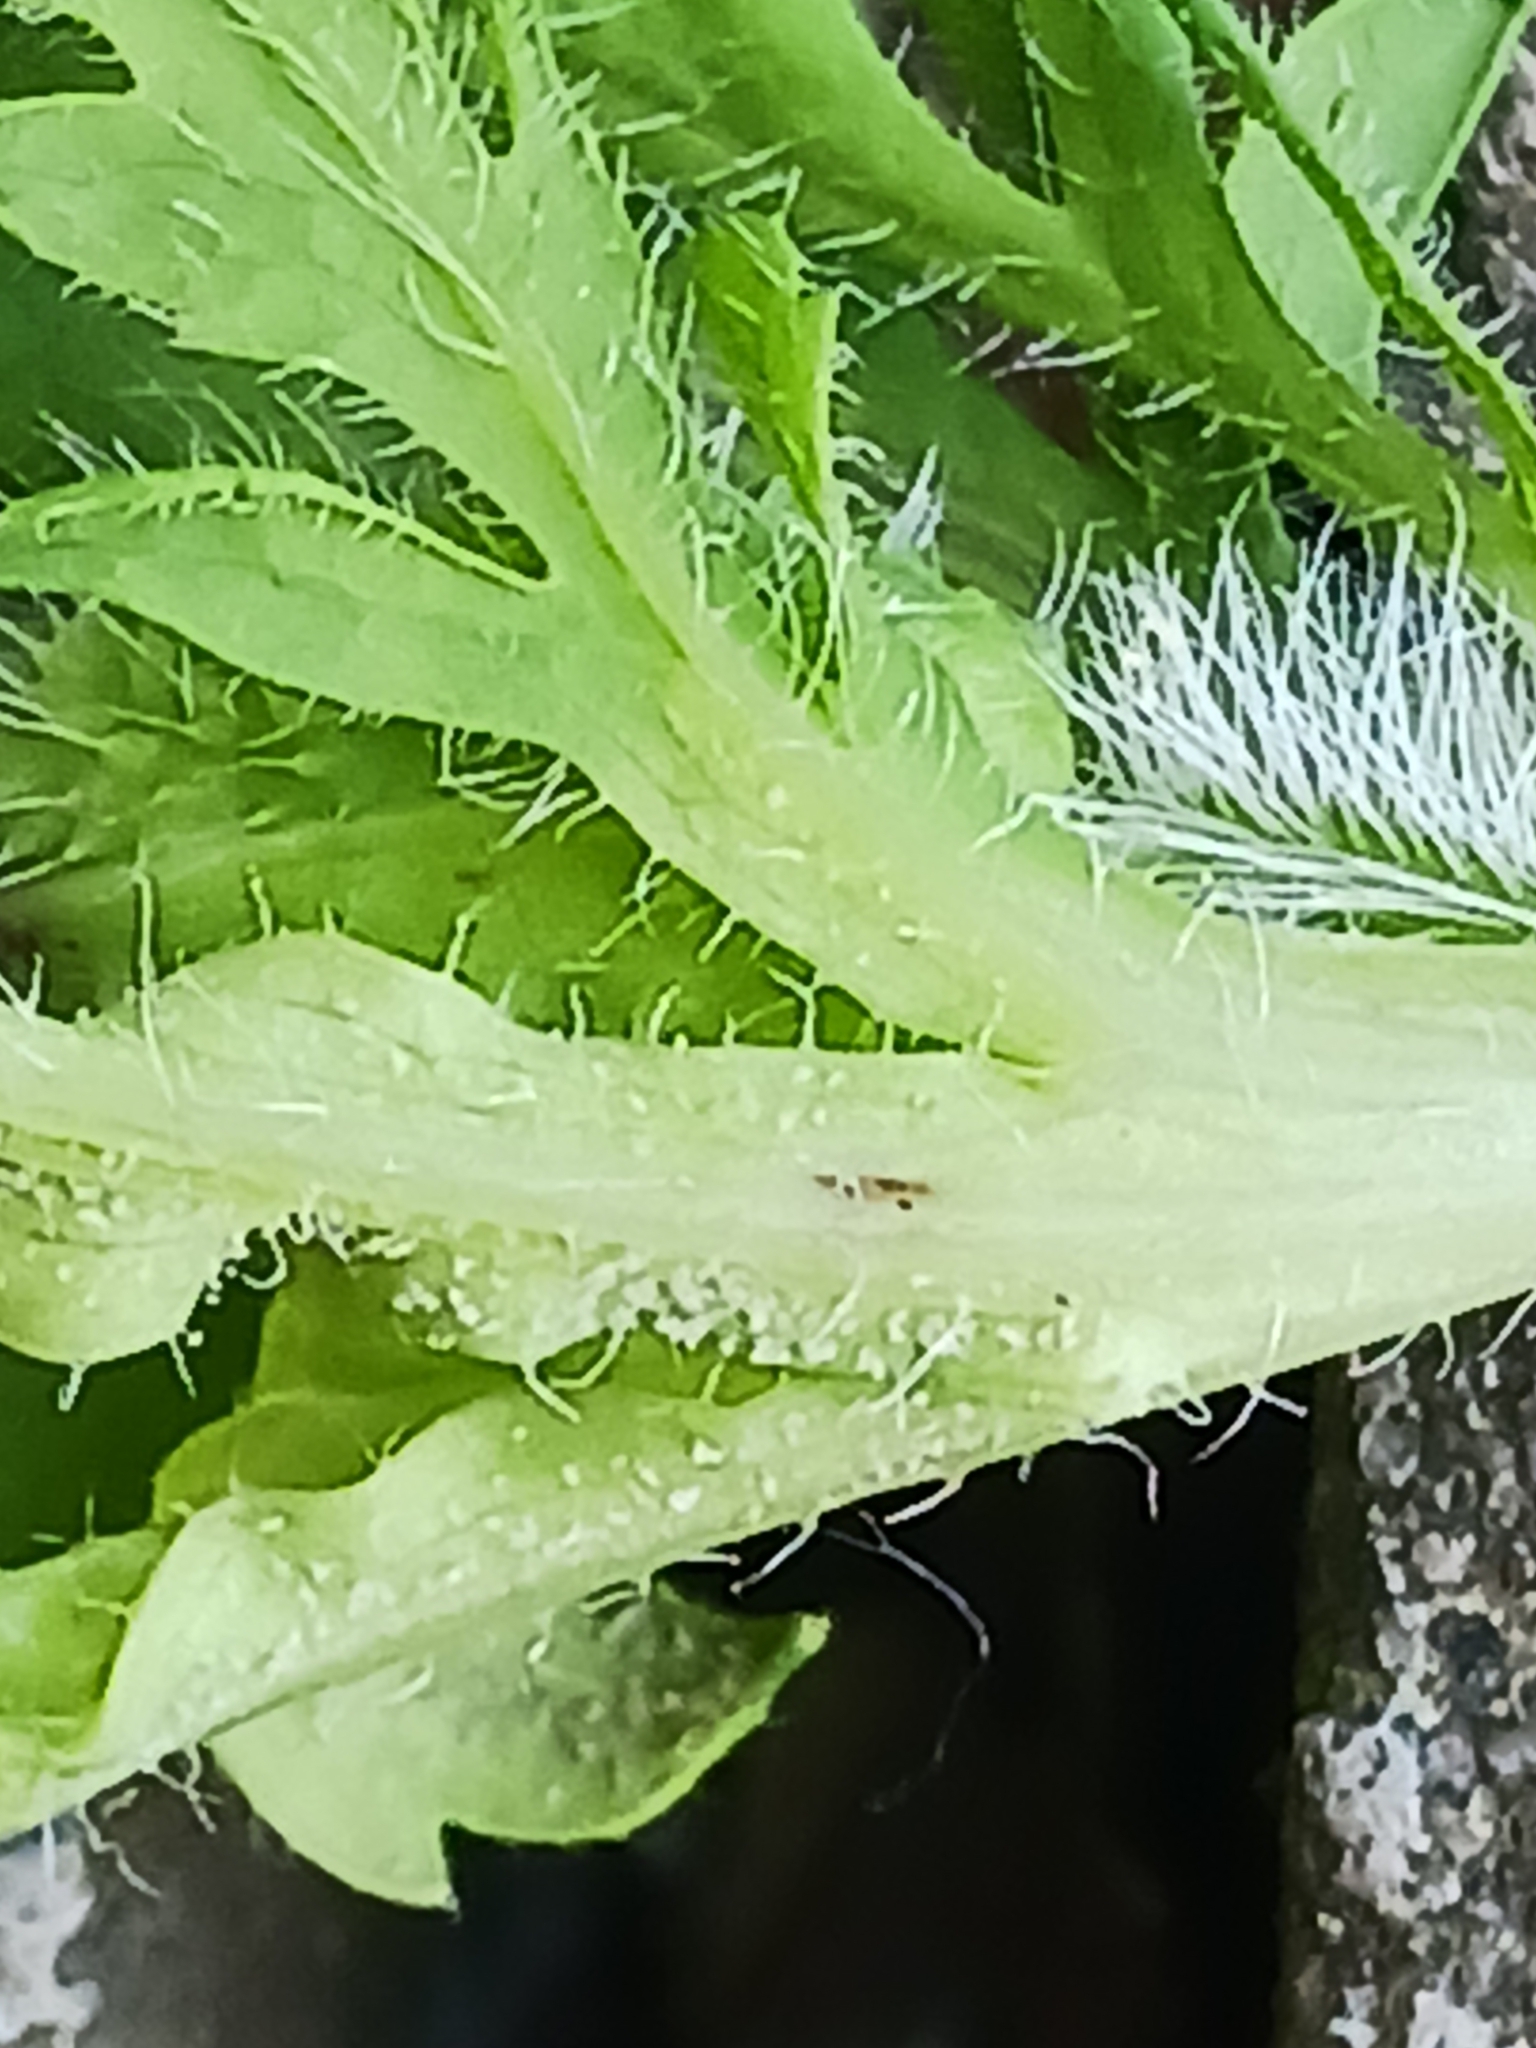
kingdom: Chromista
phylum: Oomycota
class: Peronosporea
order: Peronosporales
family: Peronosporaceae
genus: Peronospora
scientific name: Peronospora arborescens
